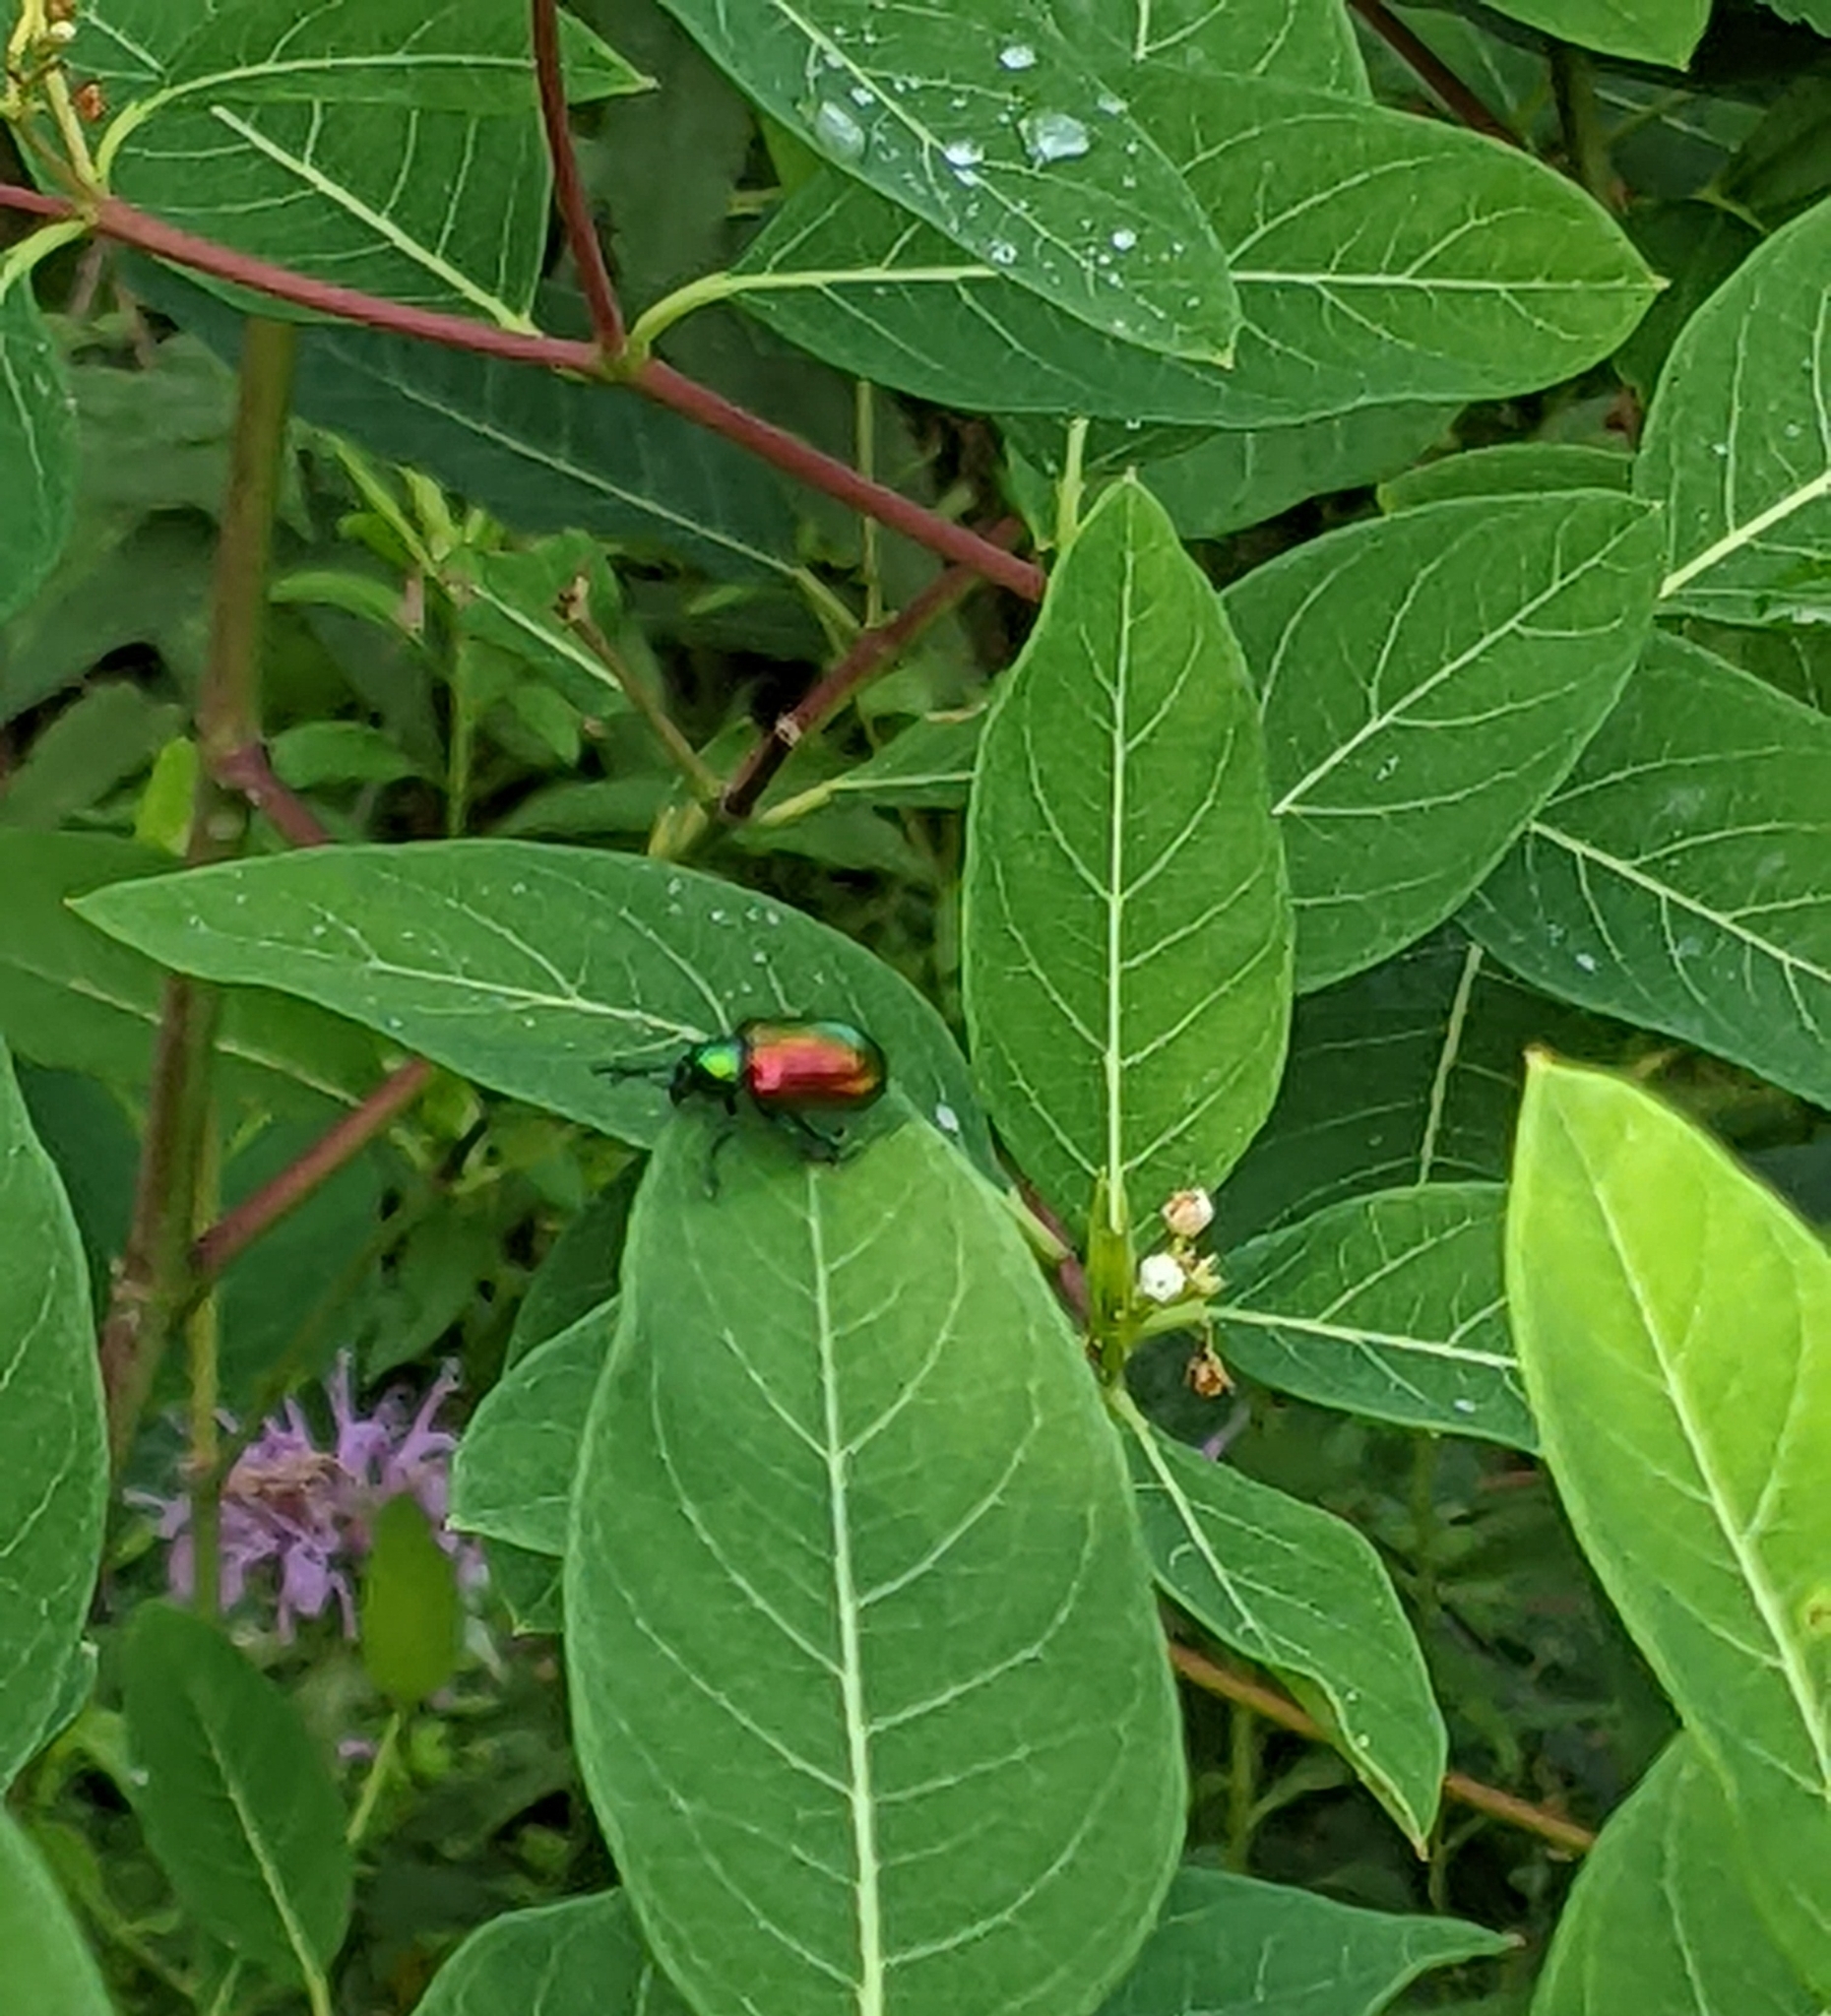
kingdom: Animalia
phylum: Arthropoda
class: Insecta
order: Coleoptera
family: Chrysomelidae
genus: Chrysochus
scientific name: Chrysochus auratus
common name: Dogbane leaf beetle
